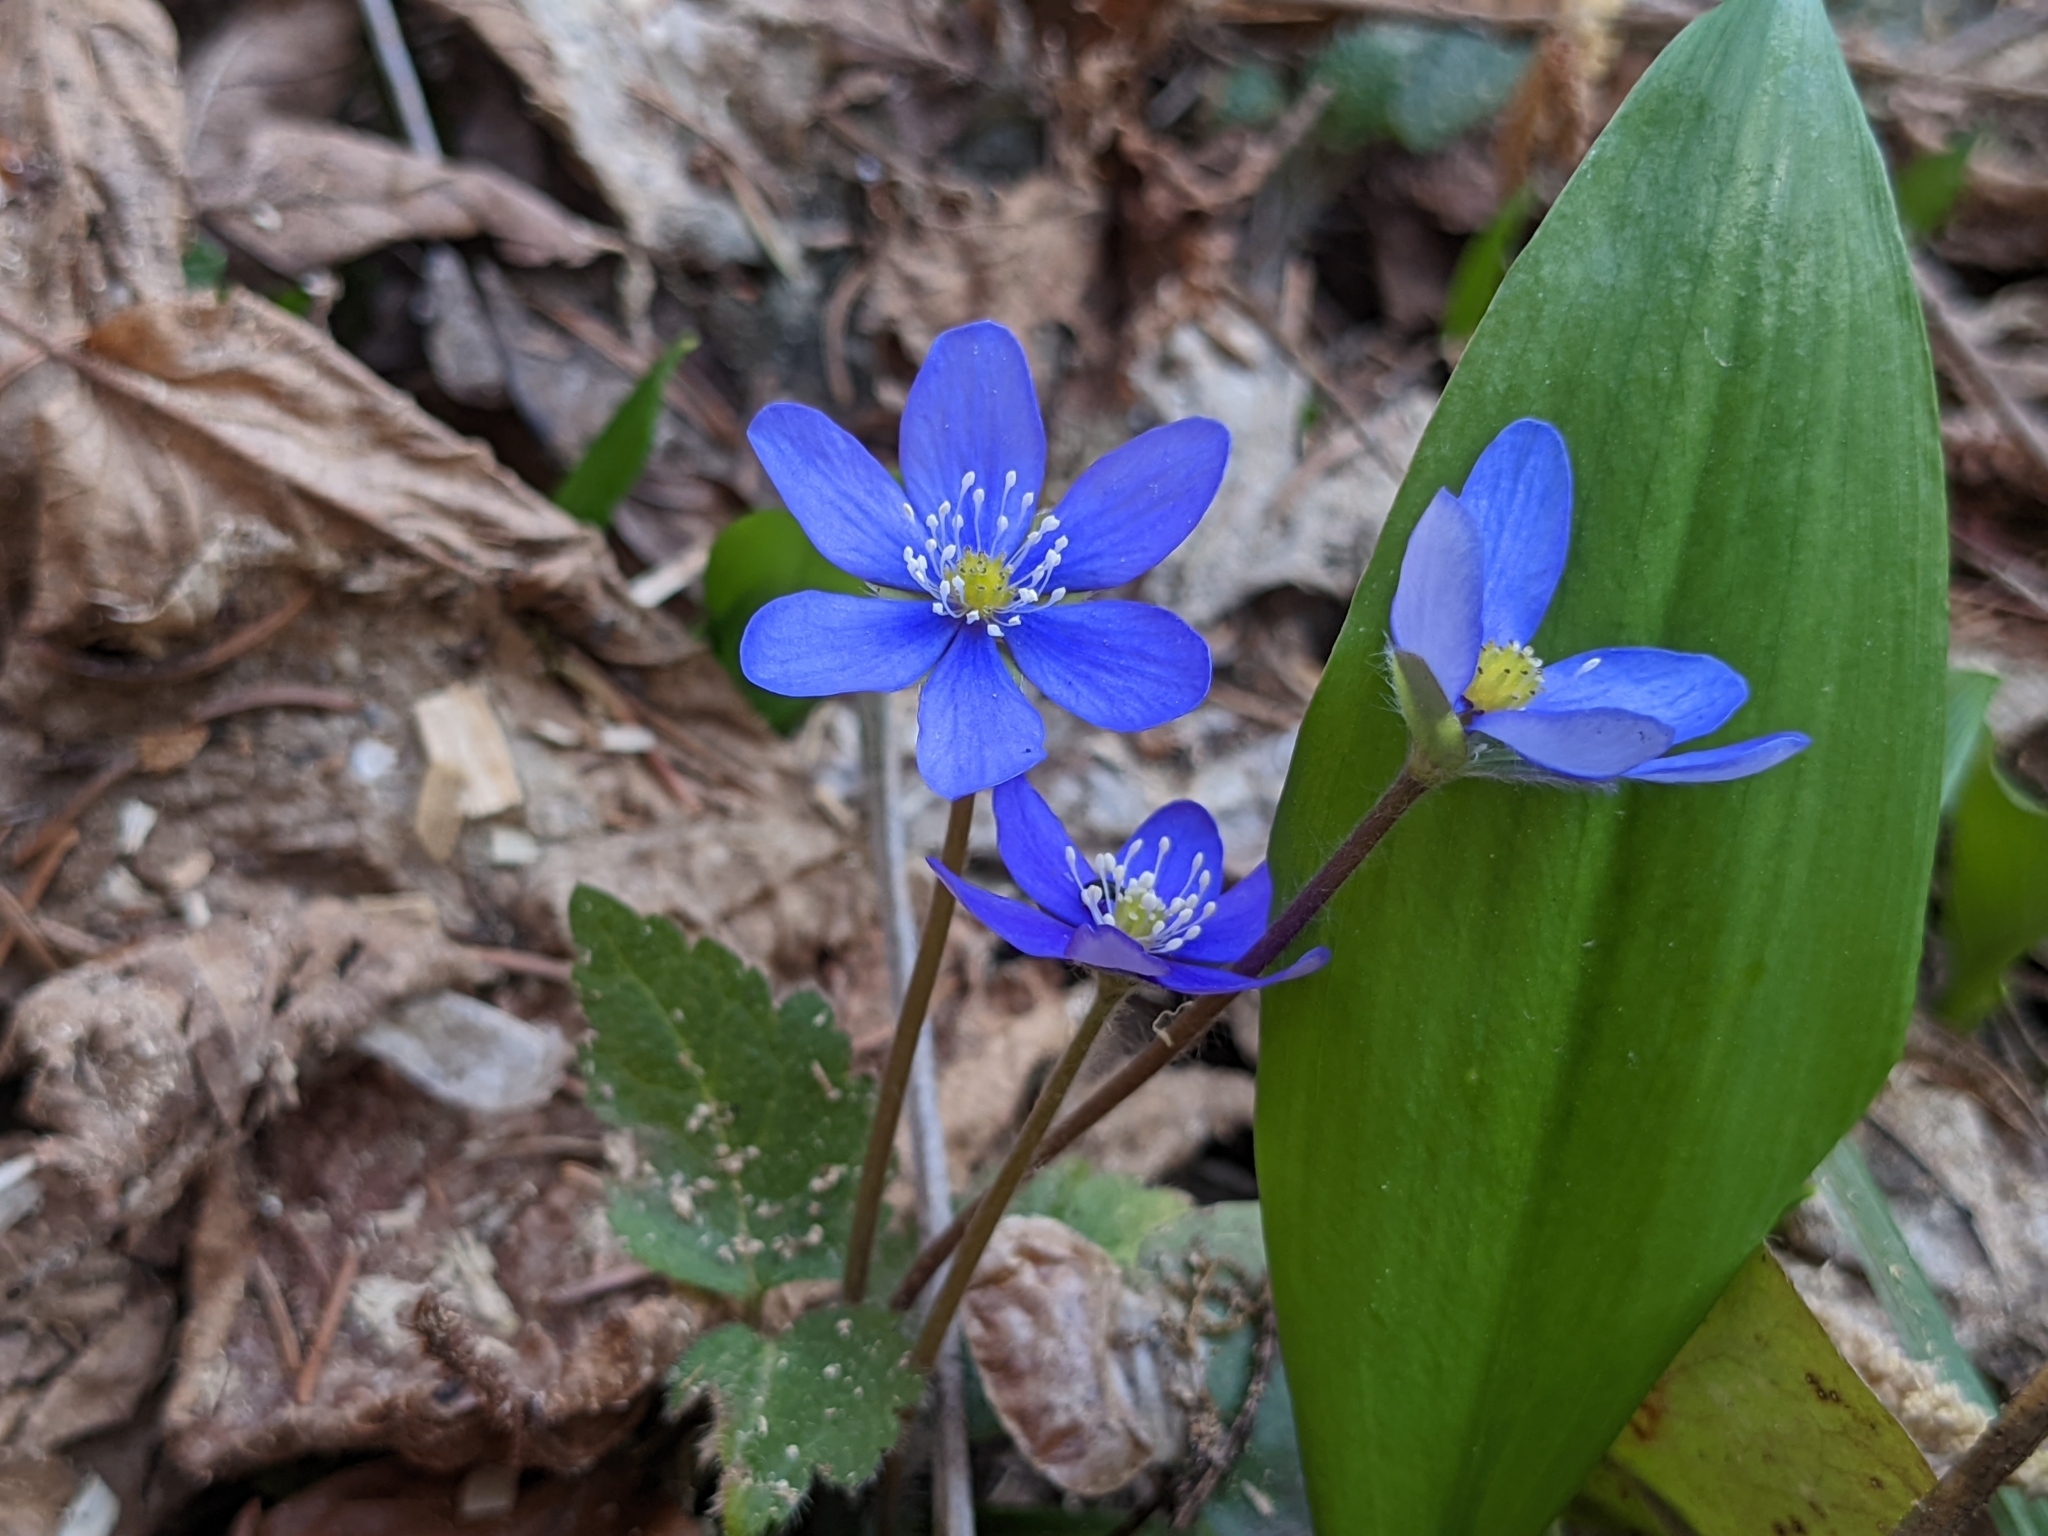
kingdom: Plantae
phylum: Tracheophyta
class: Magnoliopsida
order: Ranunculales
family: Ranunculaceae
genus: Hepatica
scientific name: Hepatica nobilis
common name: Liverleaf
